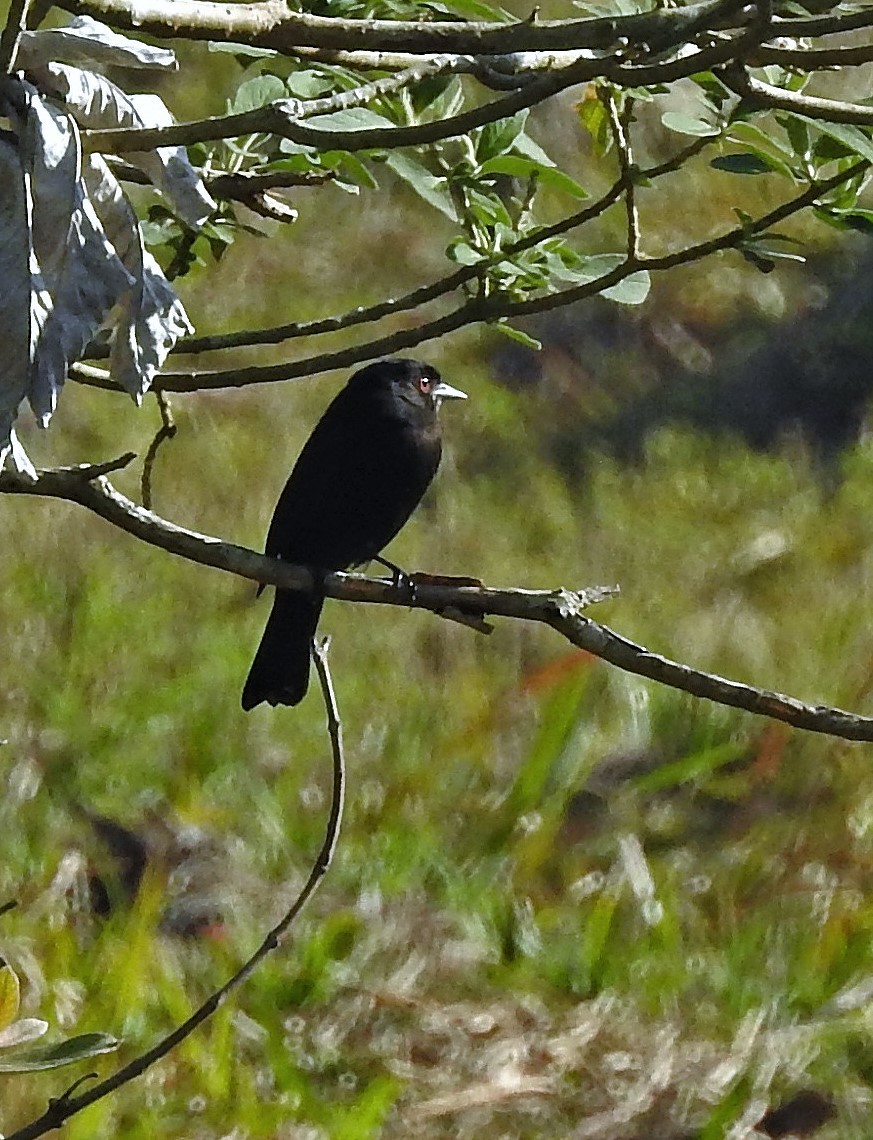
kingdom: Animalia
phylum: Chordata
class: Aves
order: Passeriformes
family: Tyrannidae
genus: Knipolegus
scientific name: Knipolegus cyanirostris
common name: Blue-billed black tyrant
